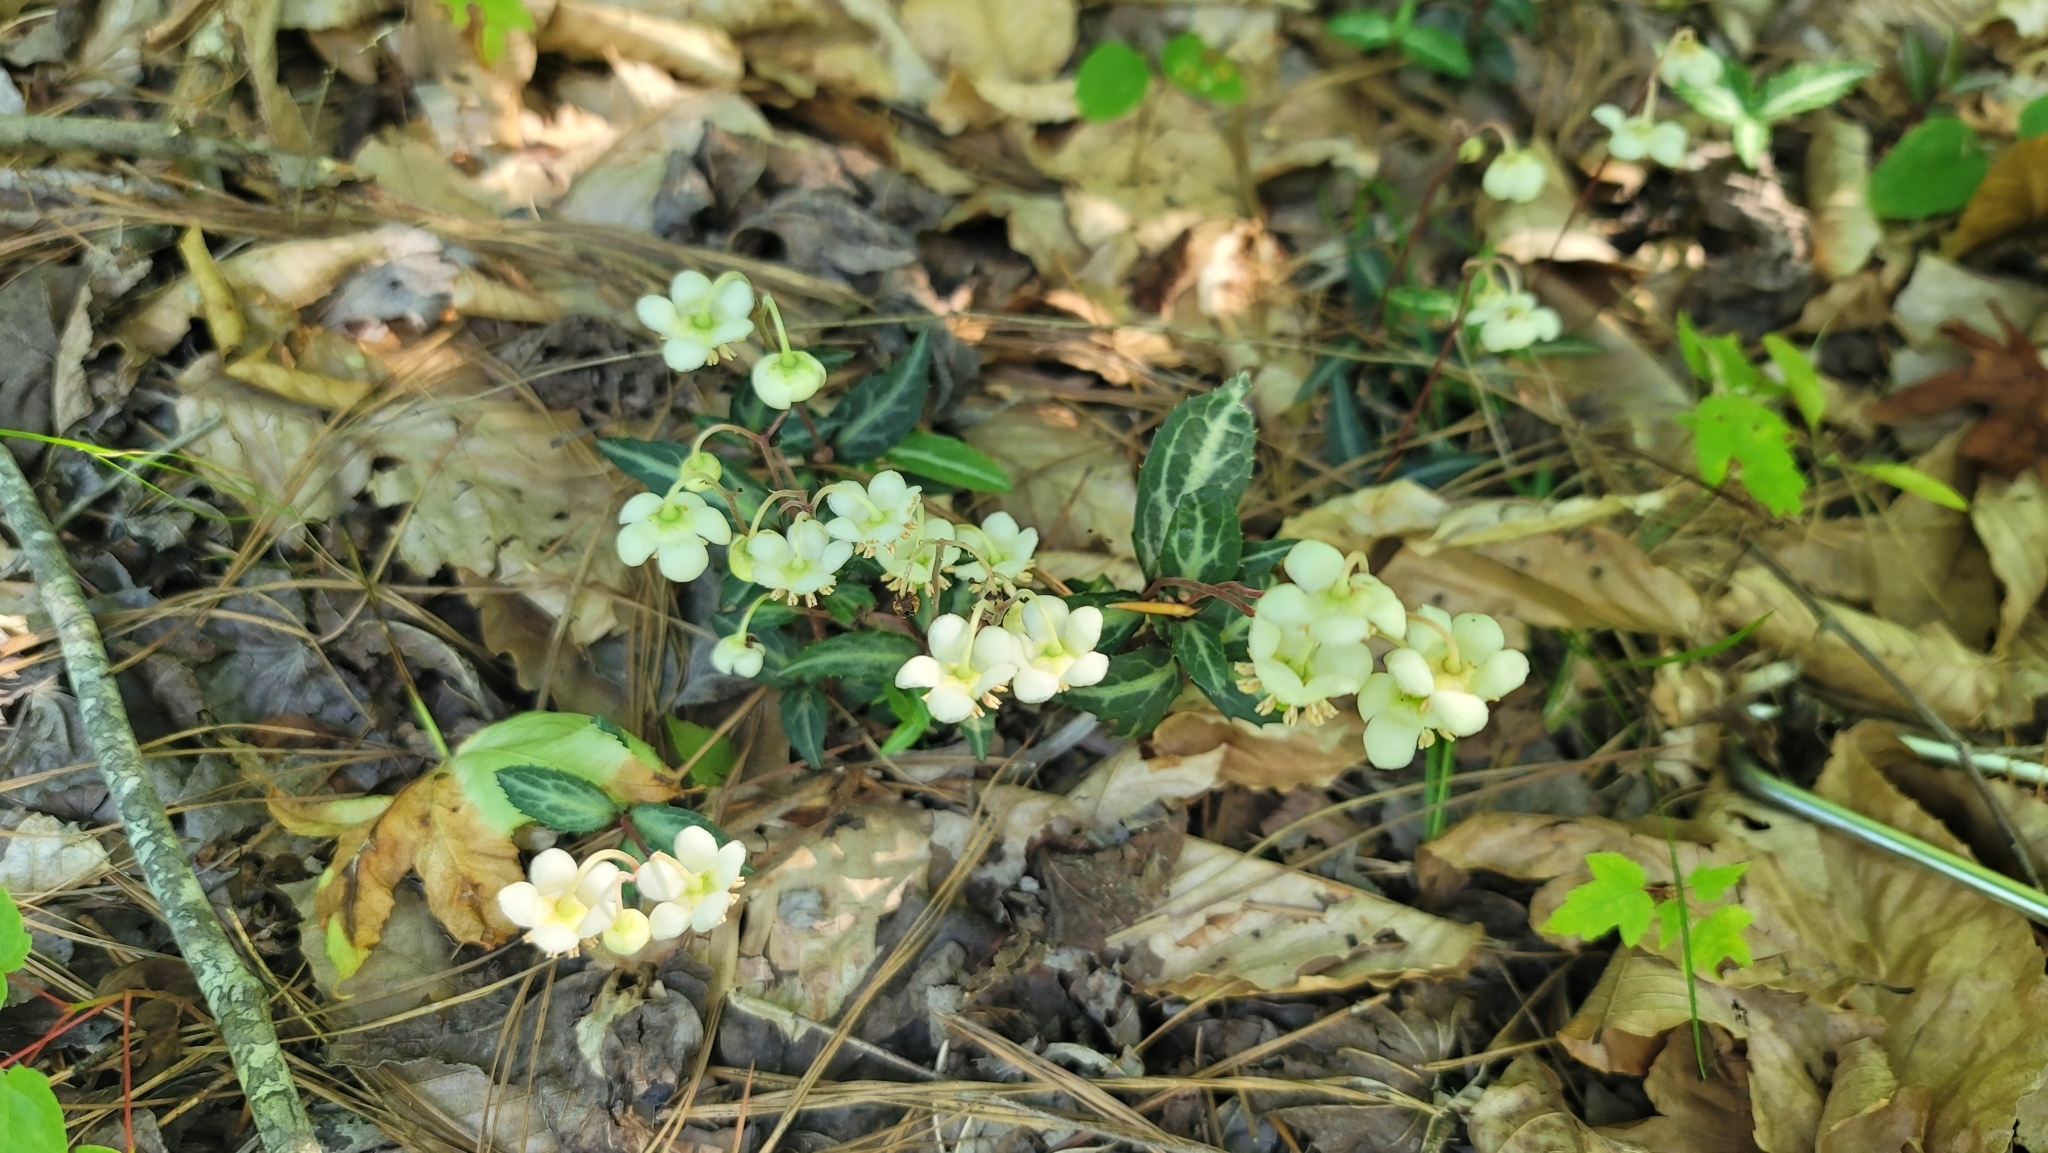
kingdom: Plantae
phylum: Tracheophyta
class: Magnoliopsida
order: Ericales
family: Ericaceae
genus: Chimaphila
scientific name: Chimaphila maculata
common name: Spotted pipsissewa
